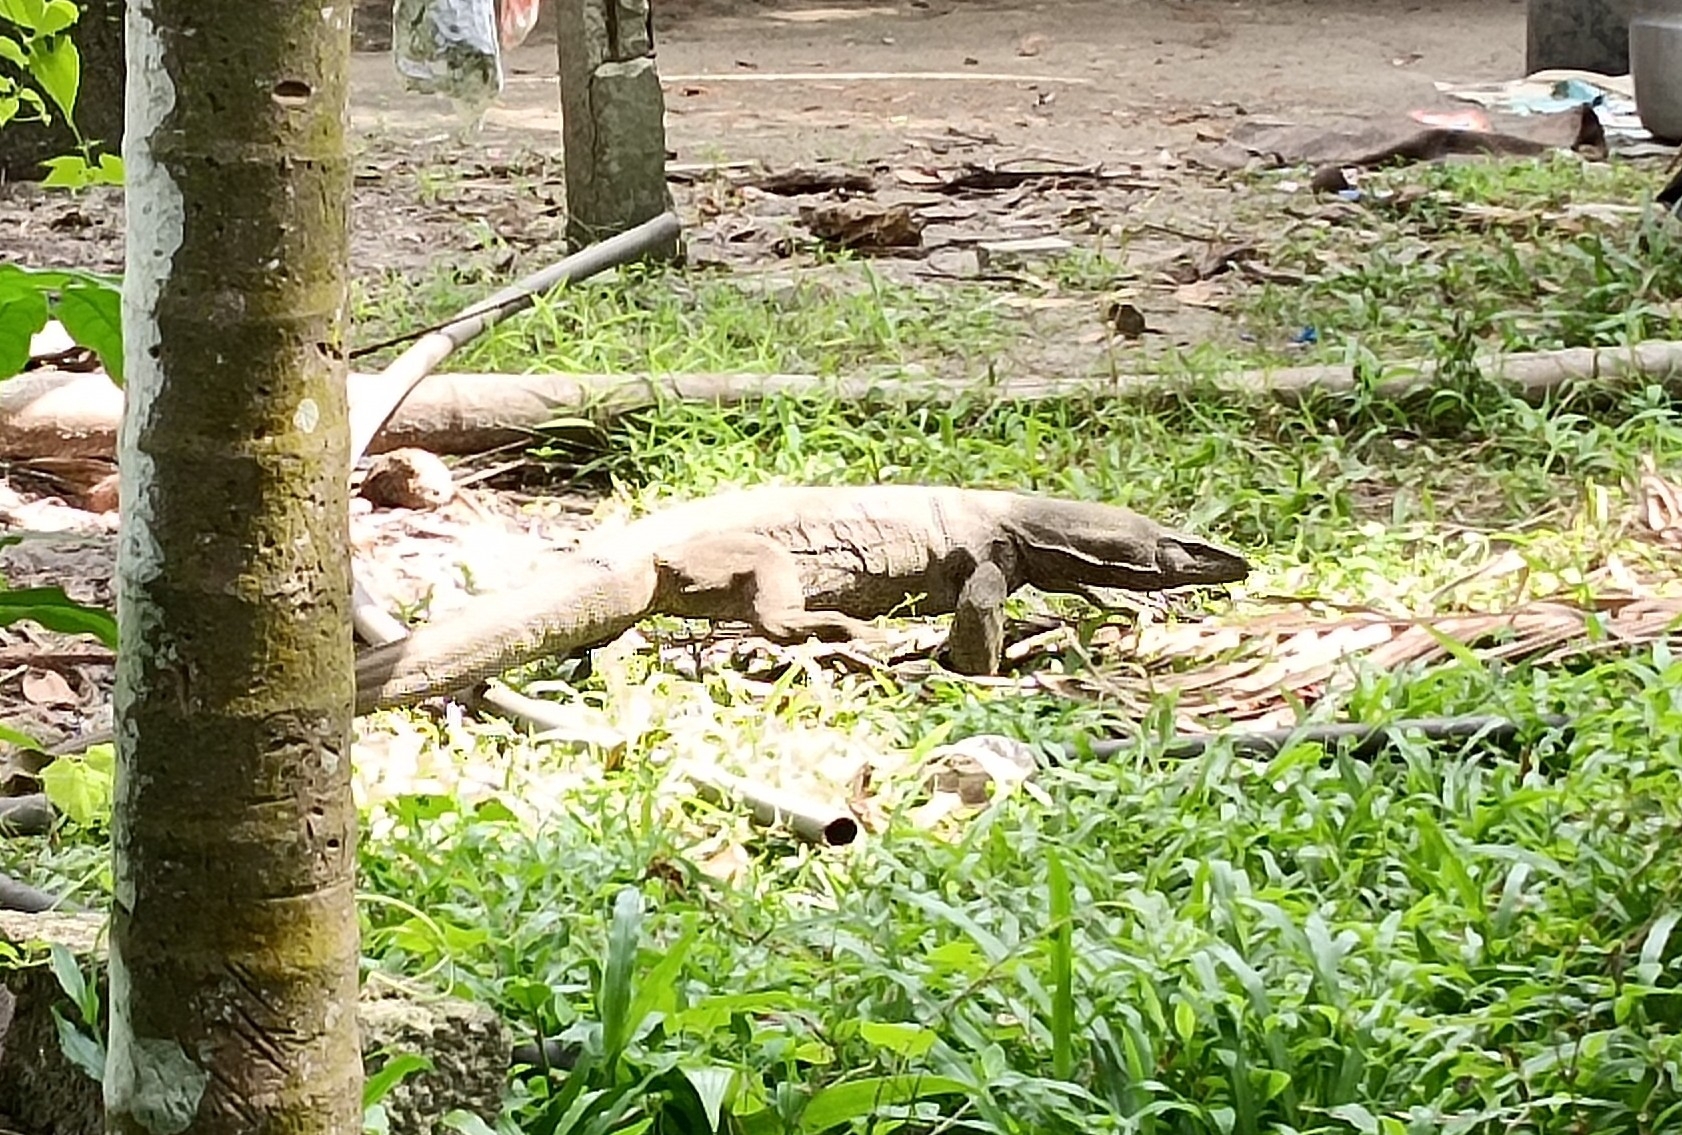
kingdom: Animalia
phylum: Chordata
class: Squamata
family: Varanidae
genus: Varanus
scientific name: Varanus bengalensis
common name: Bengal monitor
